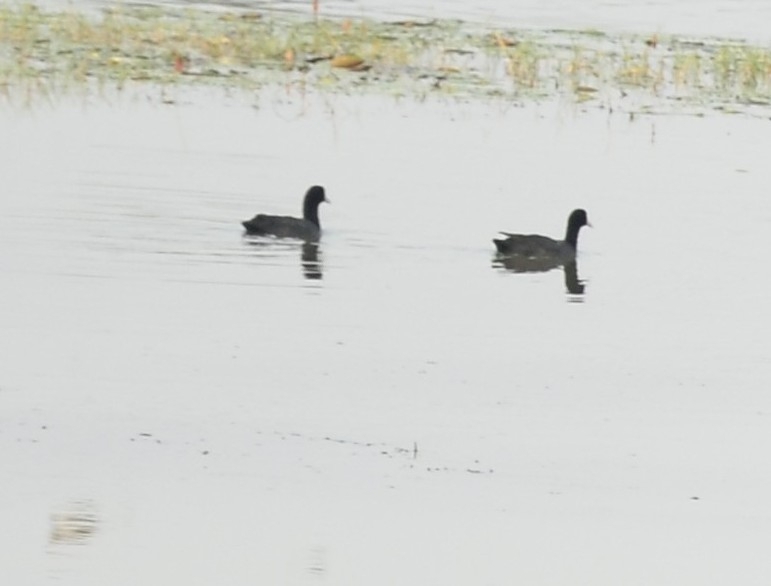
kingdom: Animalia
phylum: Chordata
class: Aves
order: Gruiformes
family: Rallidae
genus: Fulica
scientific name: Fulica atra
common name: Eurasian coot
